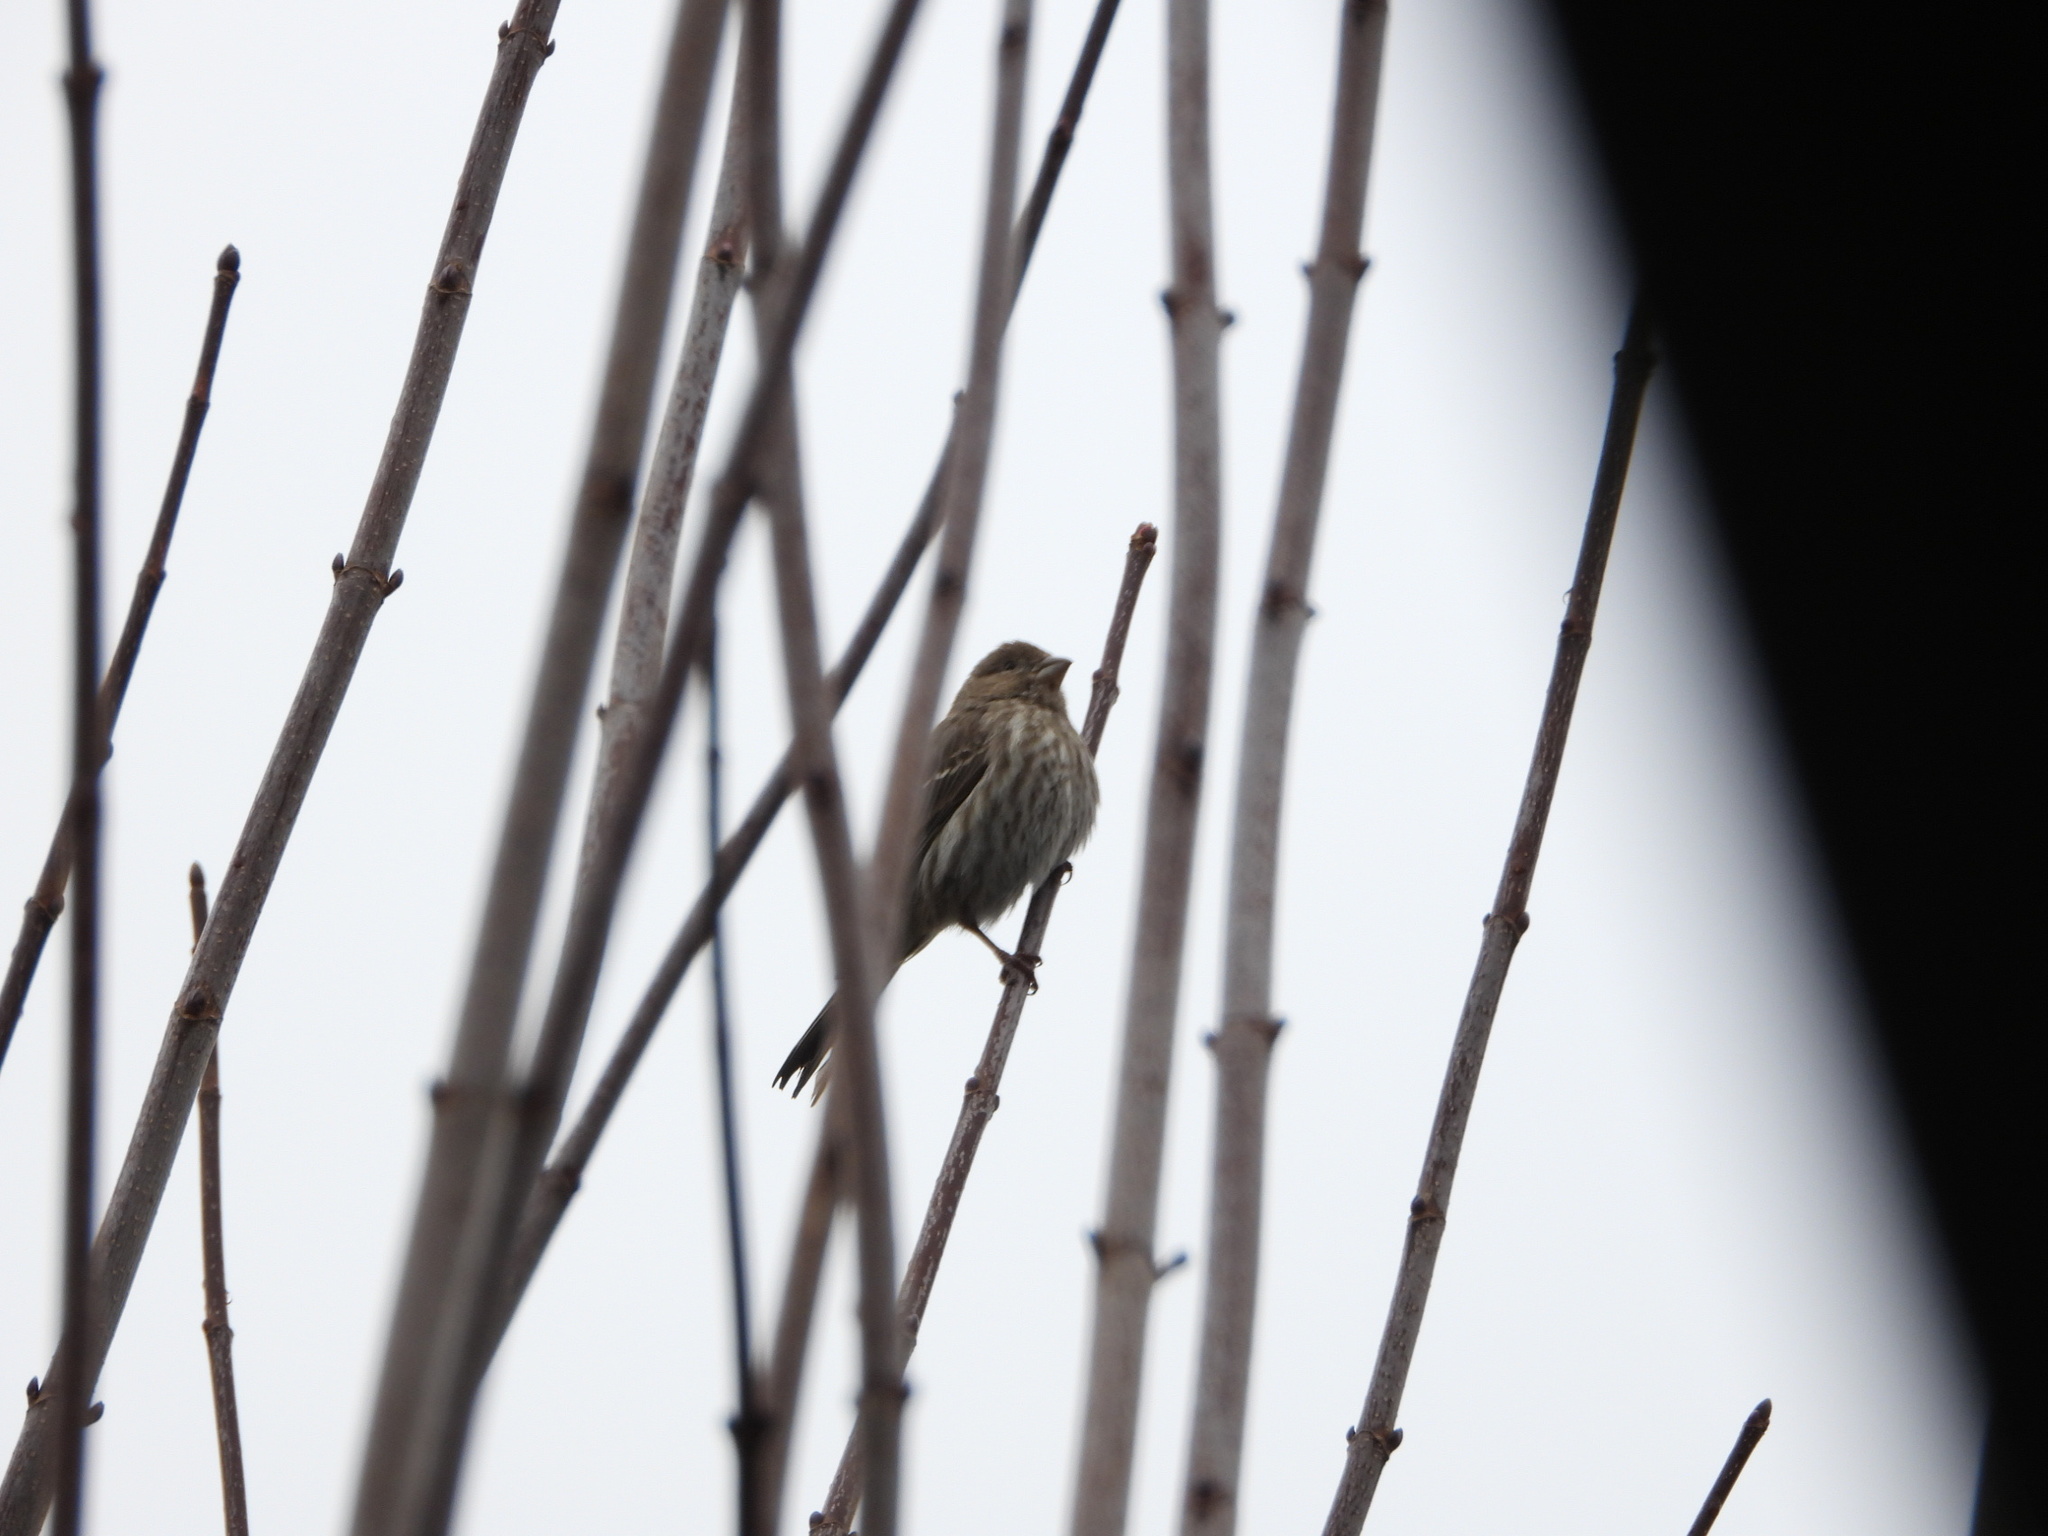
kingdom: Animalia
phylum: Chordata
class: Aves
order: Passeriformes
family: Fringillidae
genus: Haemorhous
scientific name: Haemorhous mexicanus
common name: House finch
